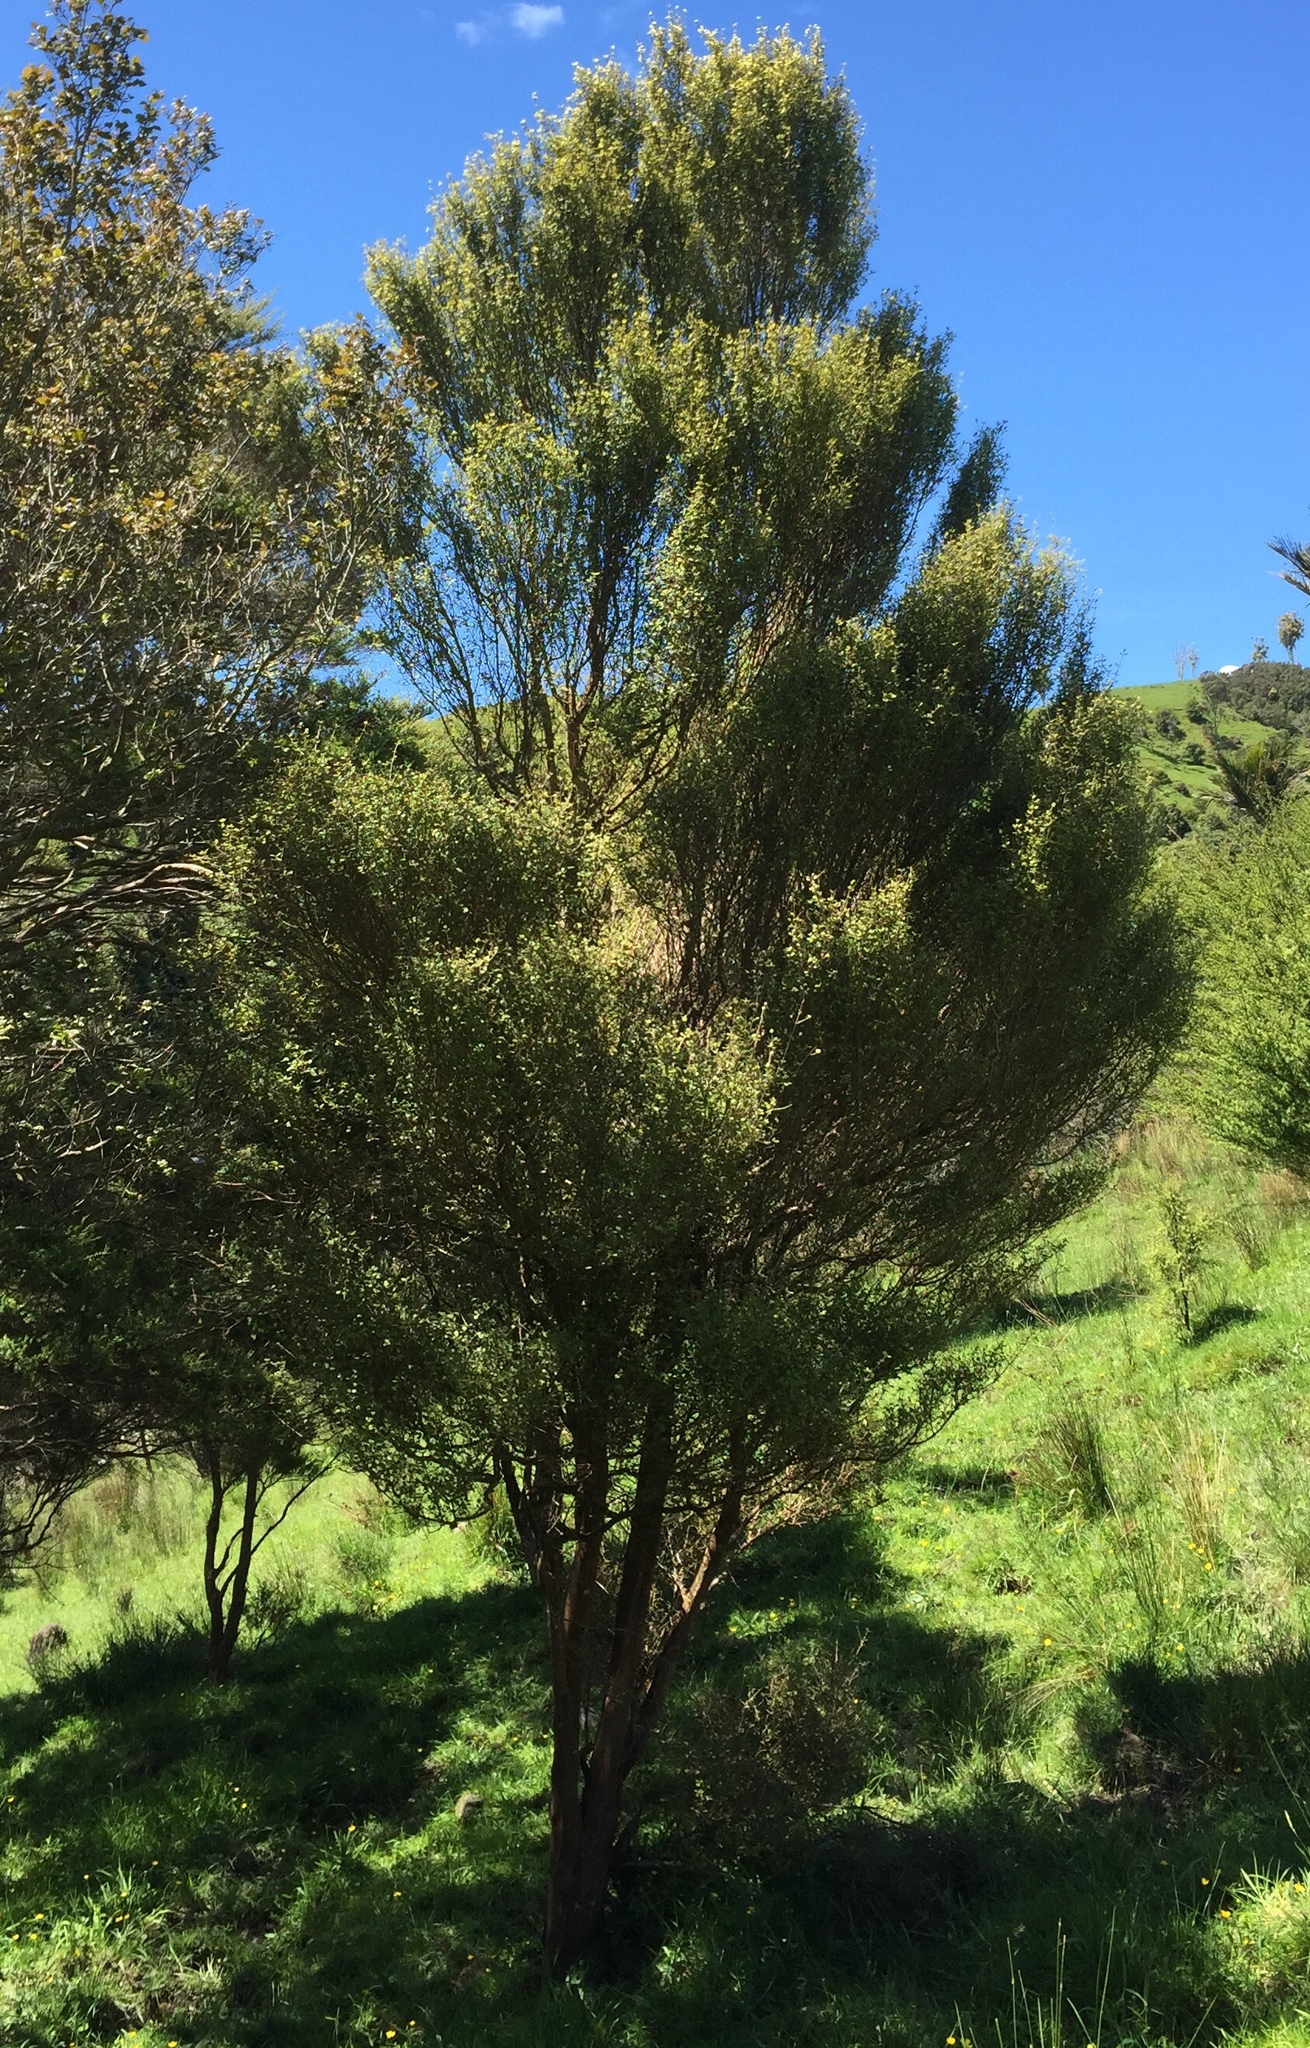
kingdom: Plantae
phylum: Tracheophyta
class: Magnoliopsida
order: Gentianales
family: Rubiaceae
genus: Coprosma
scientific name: Coprosma areolata
